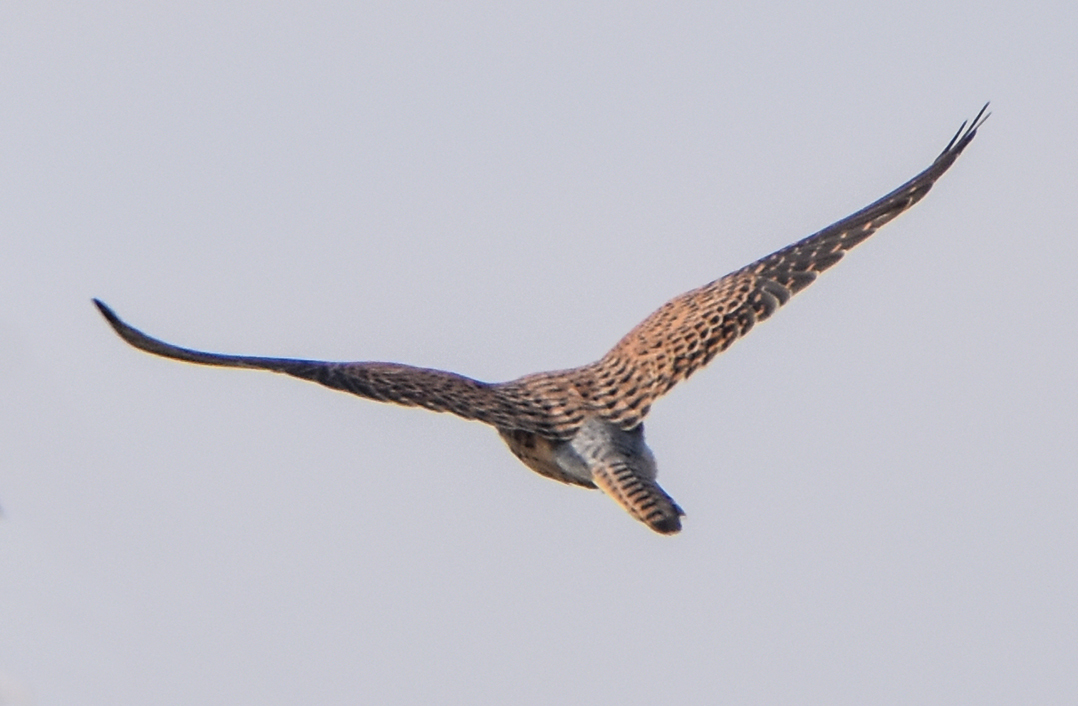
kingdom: Animalia
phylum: Chordata
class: Aves
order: Falconiformes
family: Falconidae
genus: Falco
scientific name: Falco tinnunculus
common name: Common kestrel
